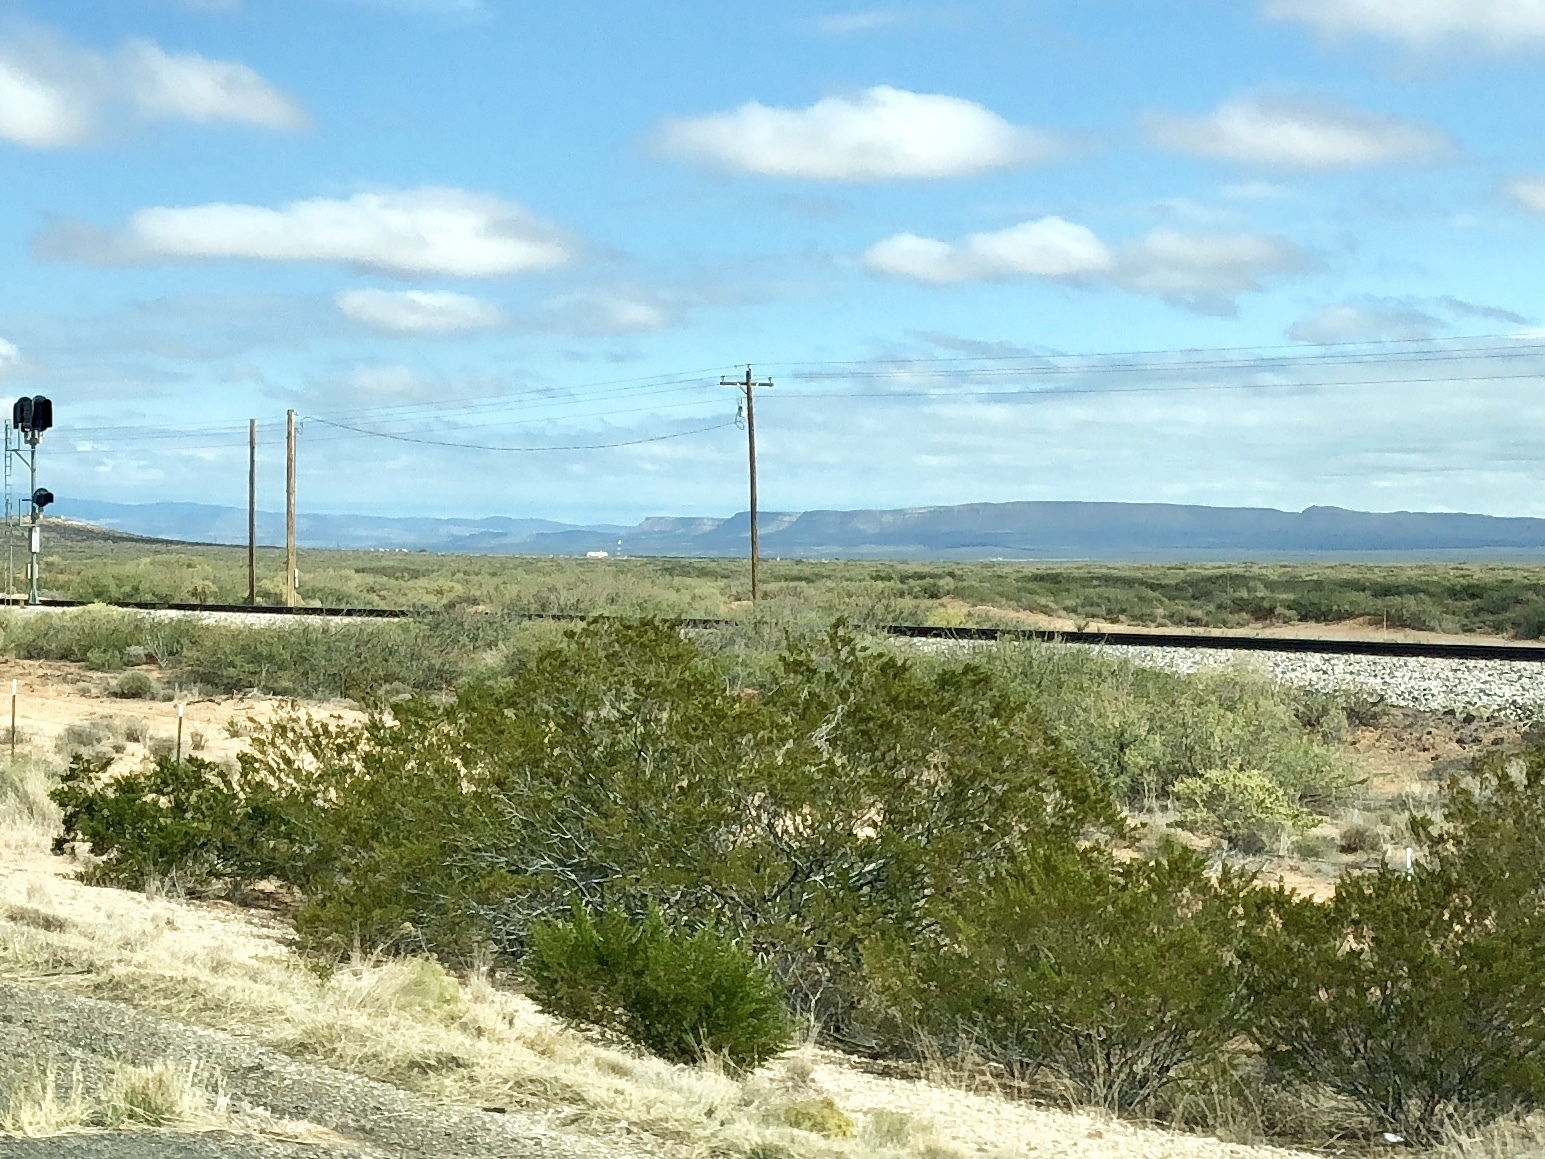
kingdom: Plantae
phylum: Tracheophyta
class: Magnoliopsida
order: Zygophyllales
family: Zygophyllaceae
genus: Larrea
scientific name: Larrea tridentata
